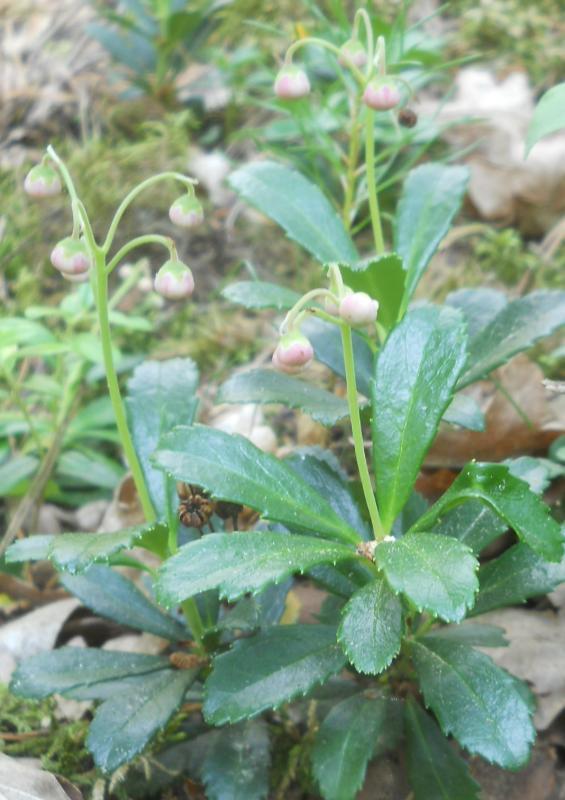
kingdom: Plantae
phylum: Tracheophyta
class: Magnoliopsida
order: Ericales
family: Ericaceae
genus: Chimaphila
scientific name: Chimaphila umbellata
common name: Pipsissewa
